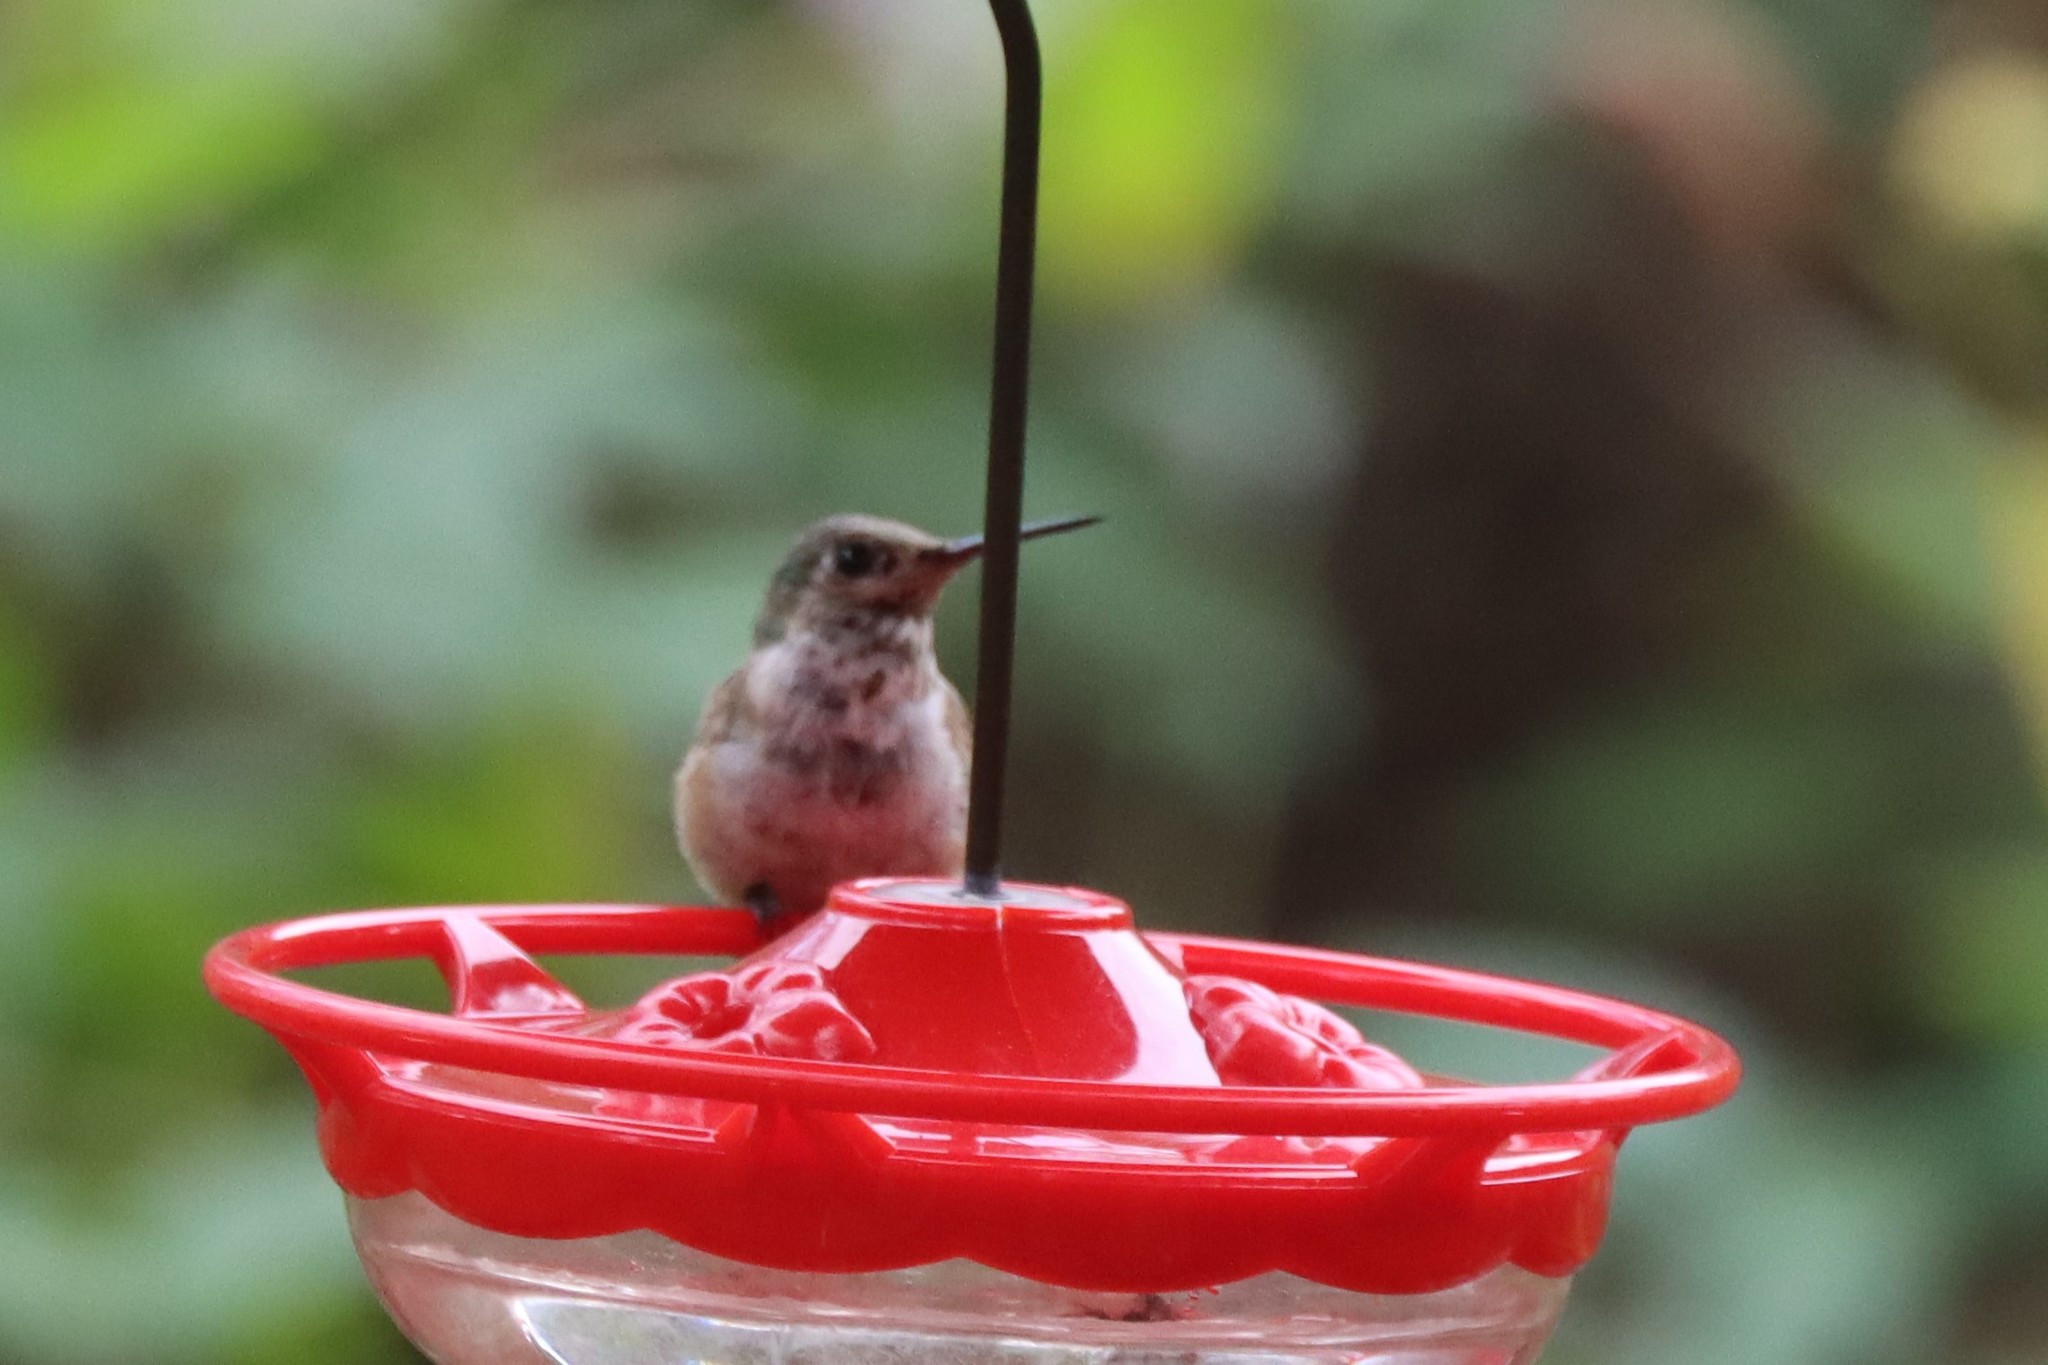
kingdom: Animalia
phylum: Chordata
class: Aves
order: Apodiformes
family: Trochilidae
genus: Selasphorus
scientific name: Selasphorus calliope
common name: Calliope hummingbird
